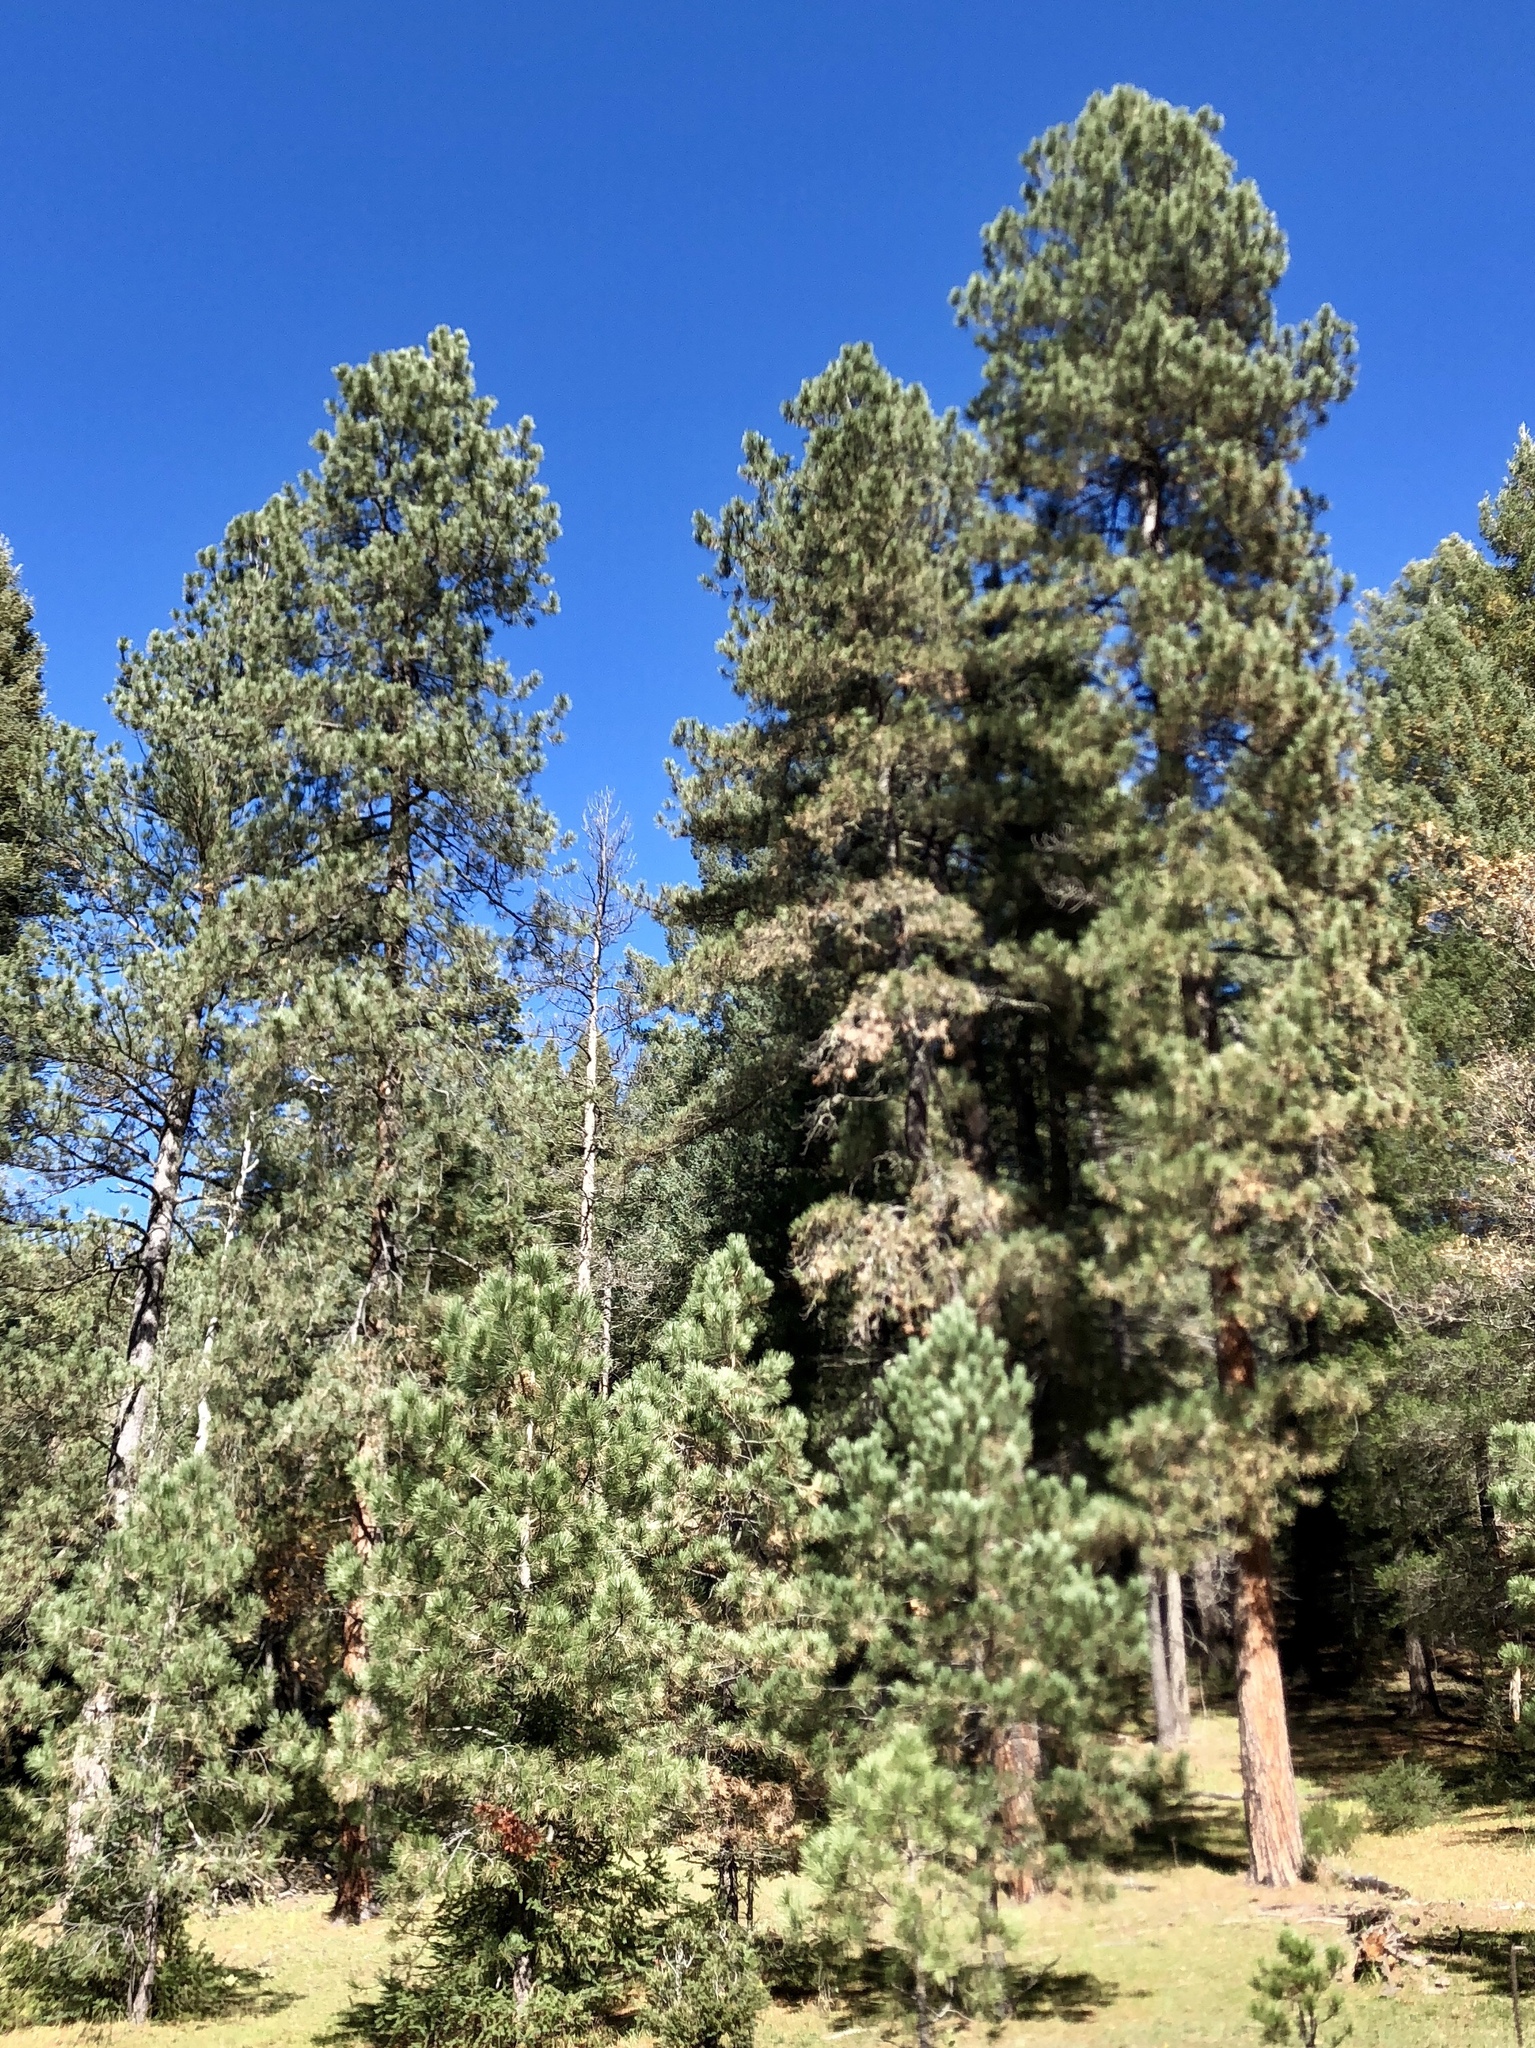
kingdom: Plantae
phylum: Tracheophyta
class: Pinopsida
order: Pinales
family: Pinaceae
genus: Pinus
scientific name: Pinus ponderosa
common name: Western yellow-pine
